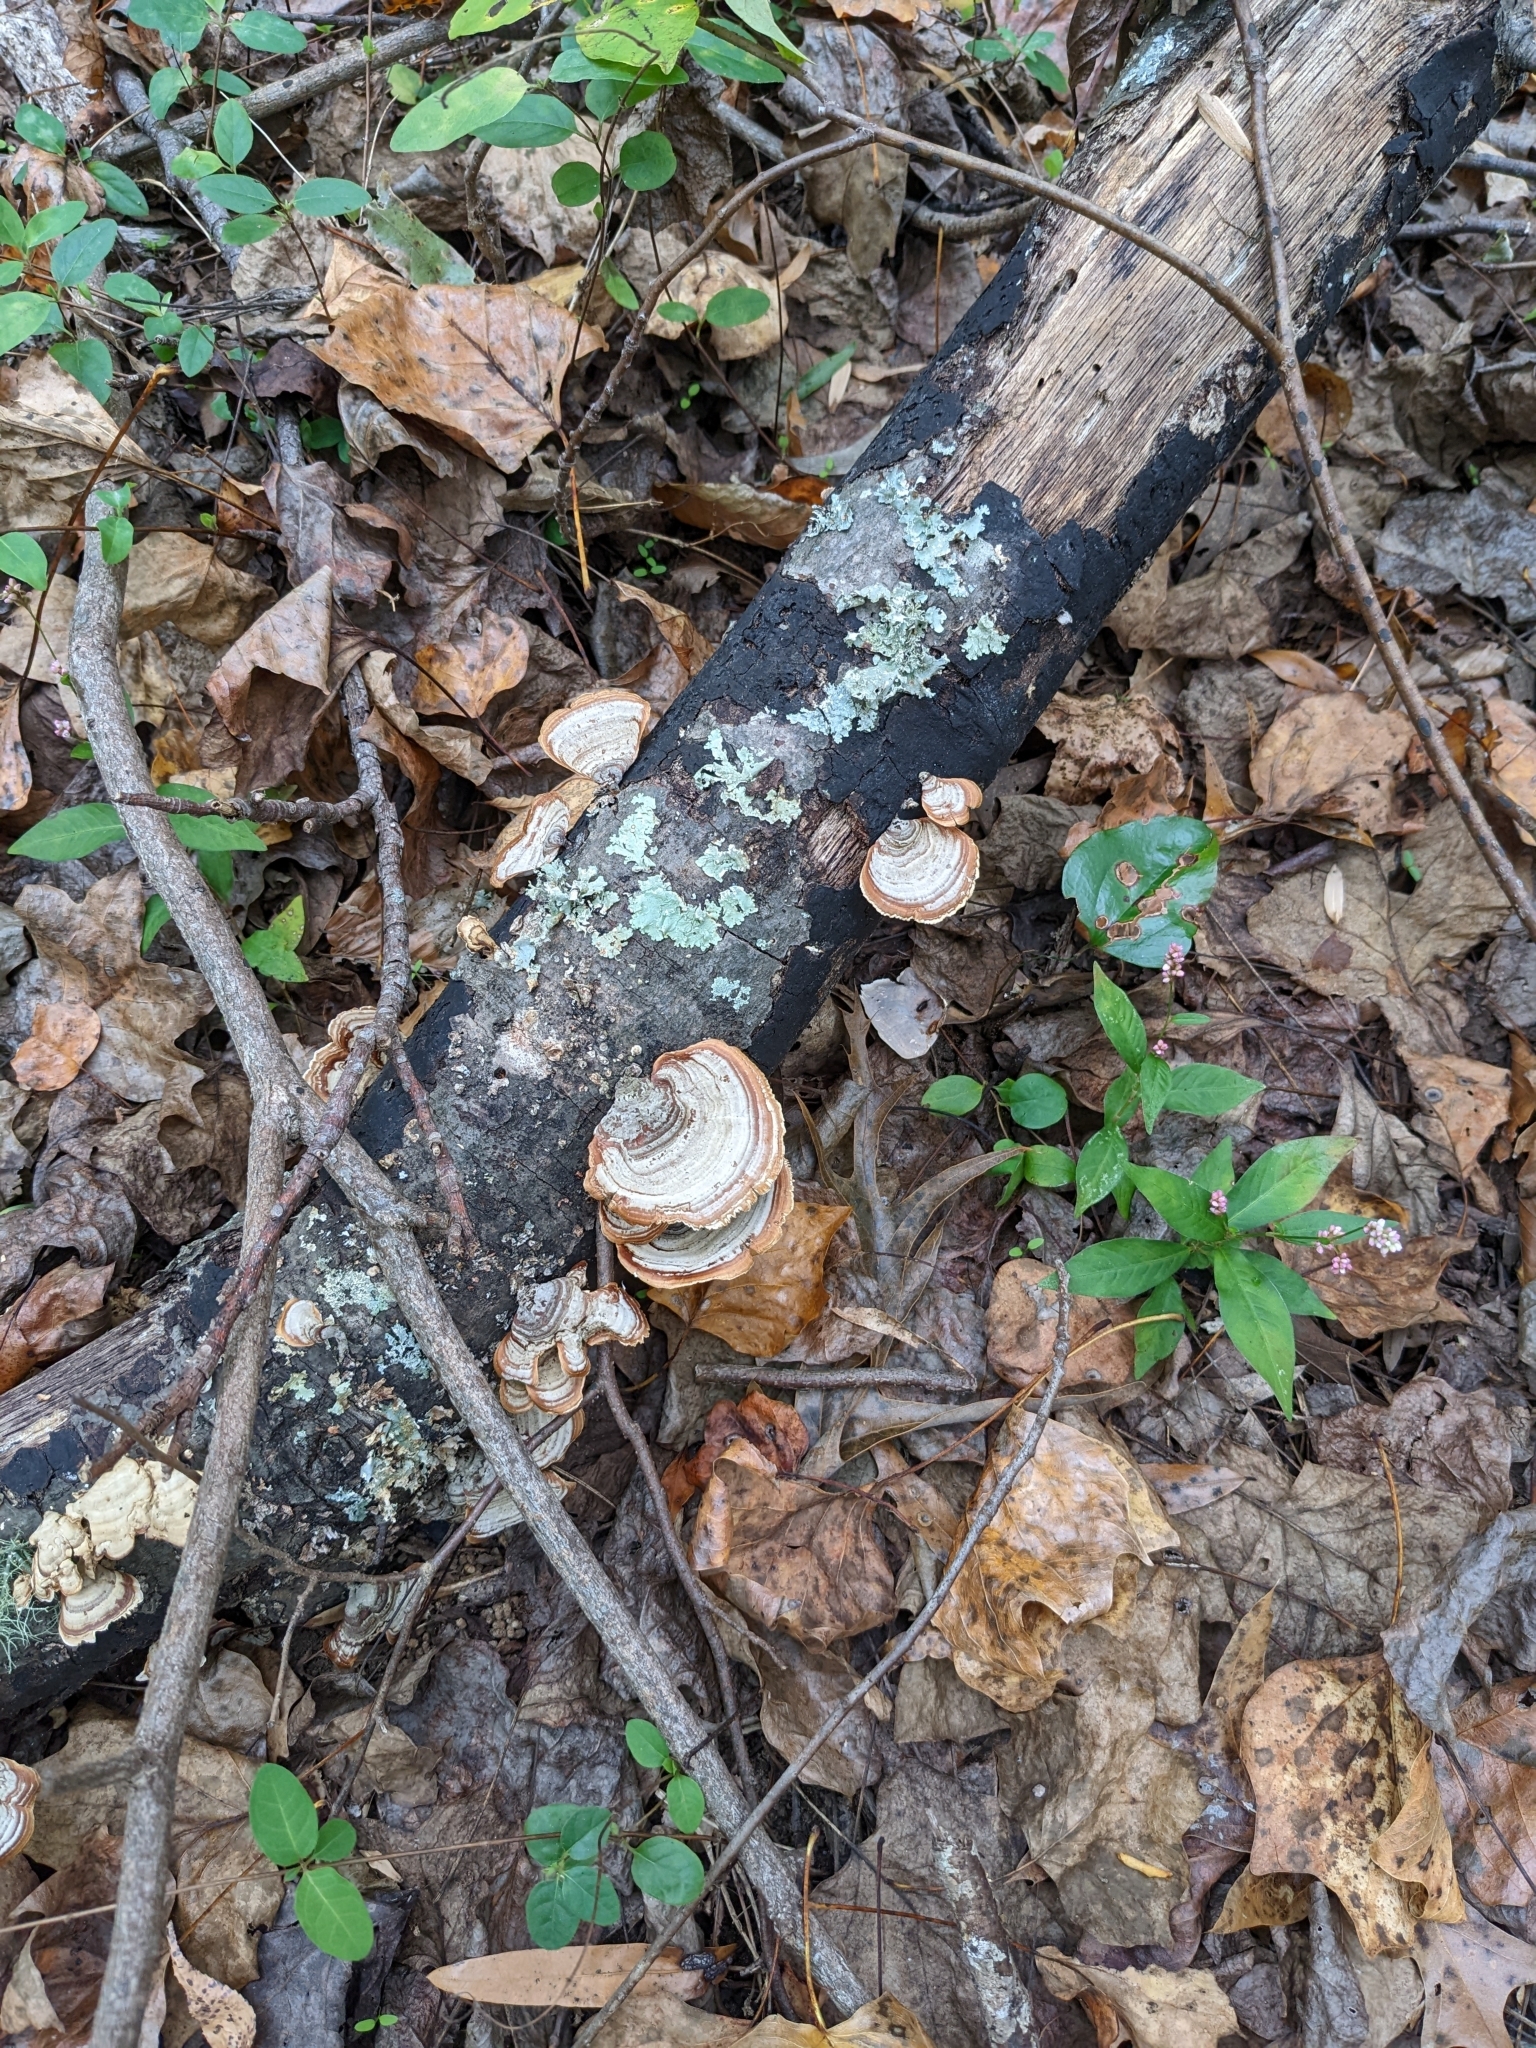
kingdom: Fungi
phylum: Basidiomycota
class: Agaricomycetes
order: Russulales
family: Stereaceae
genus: Stereum
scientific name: Stereum lobatum
